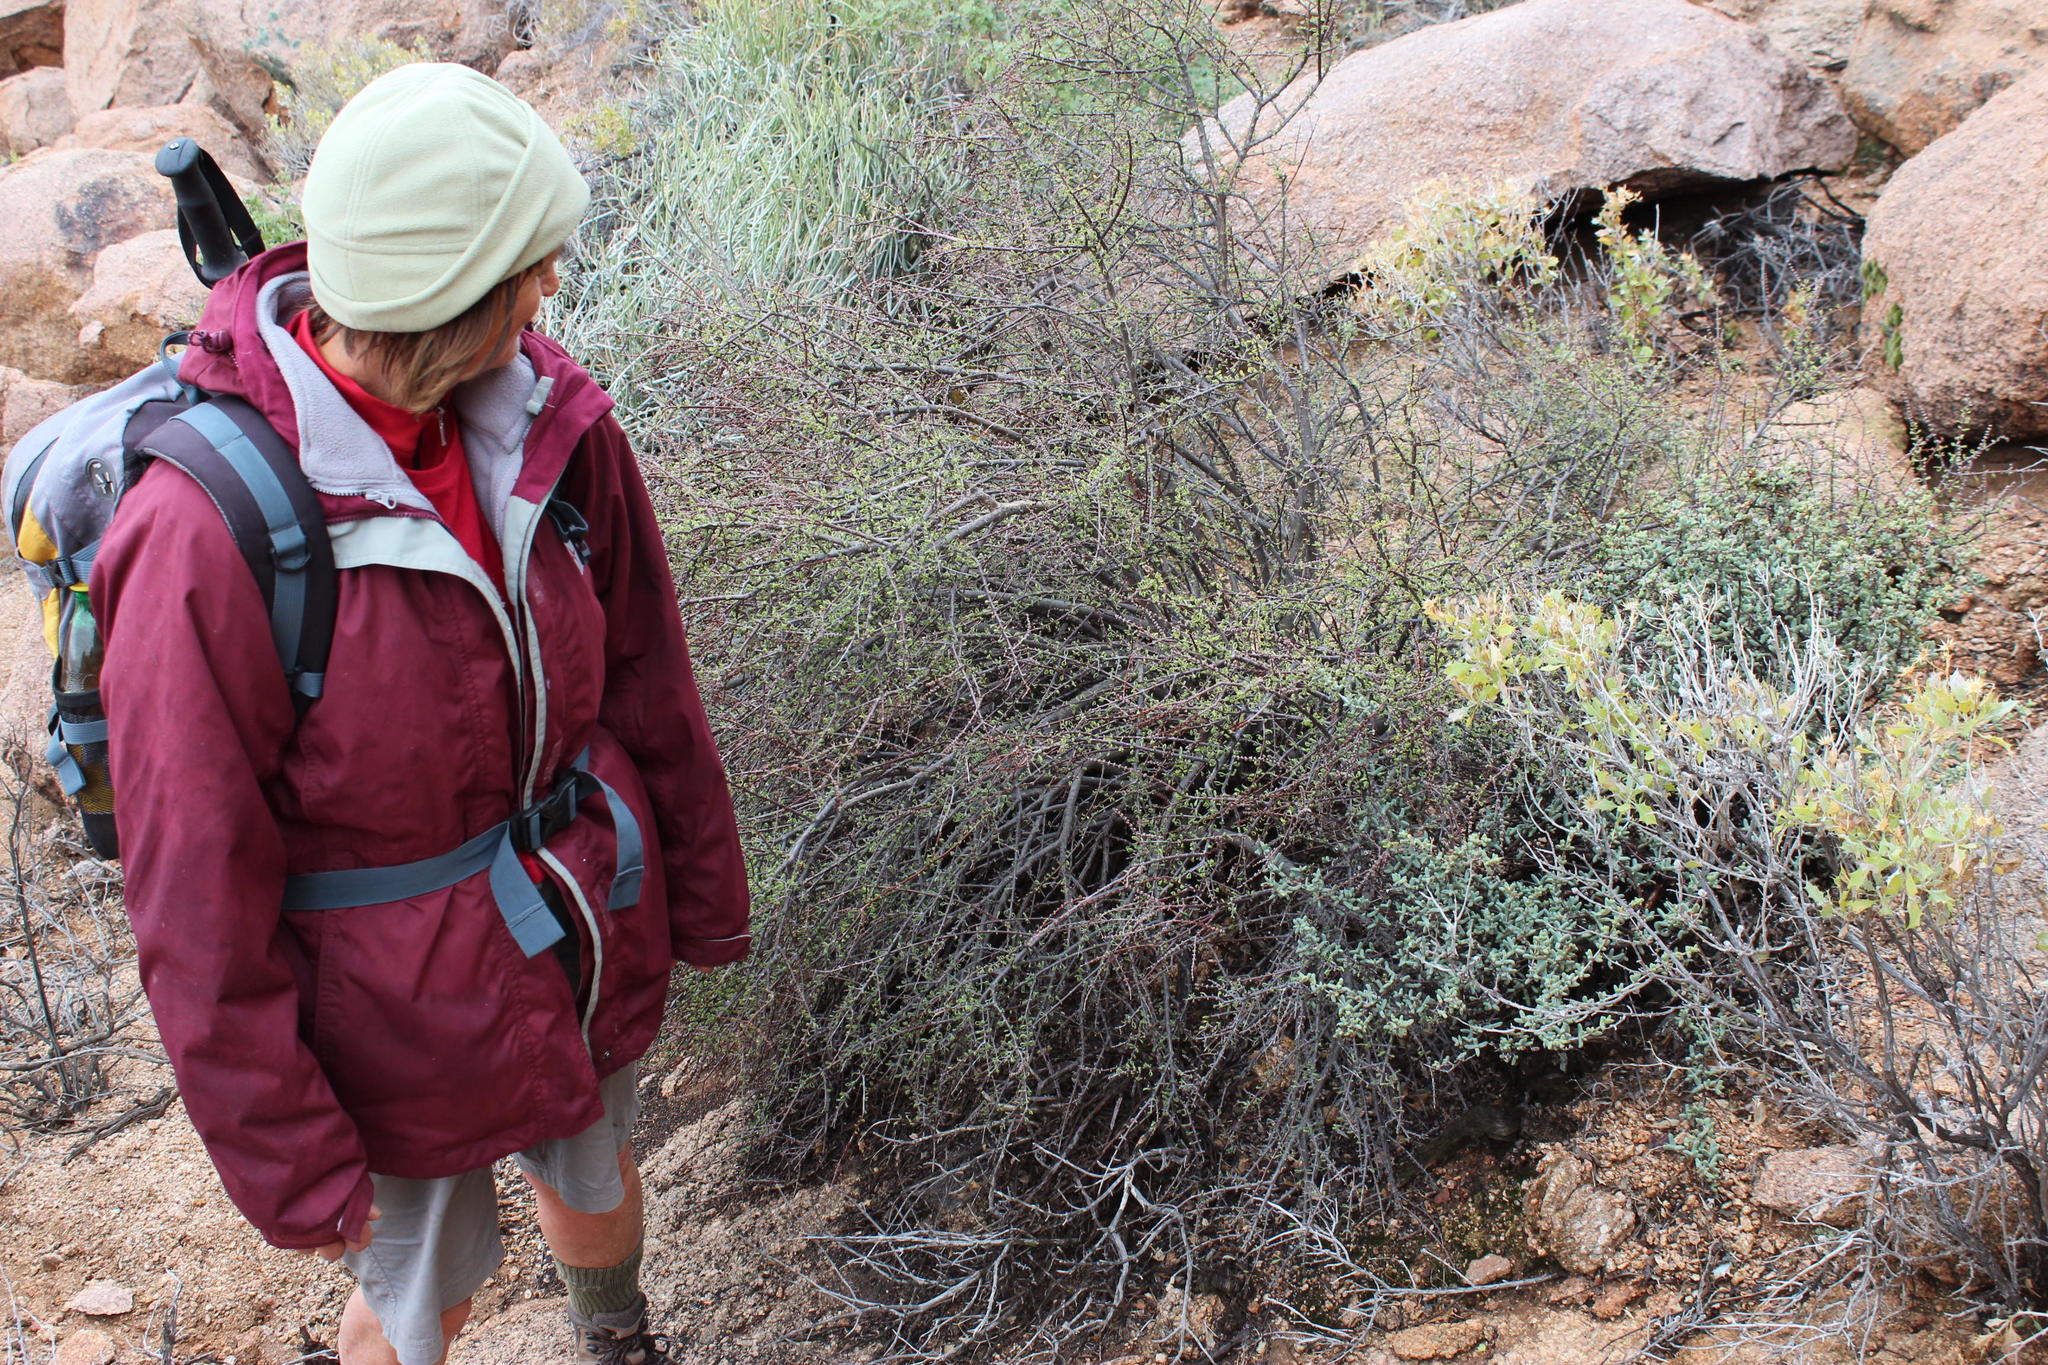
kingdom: Plantae
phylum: Tracheophyta
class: Magnoliopsida
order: Caryophyllales
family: Didiereaceae
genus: Portulacaria
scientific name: Portulacaria fruticulosa
